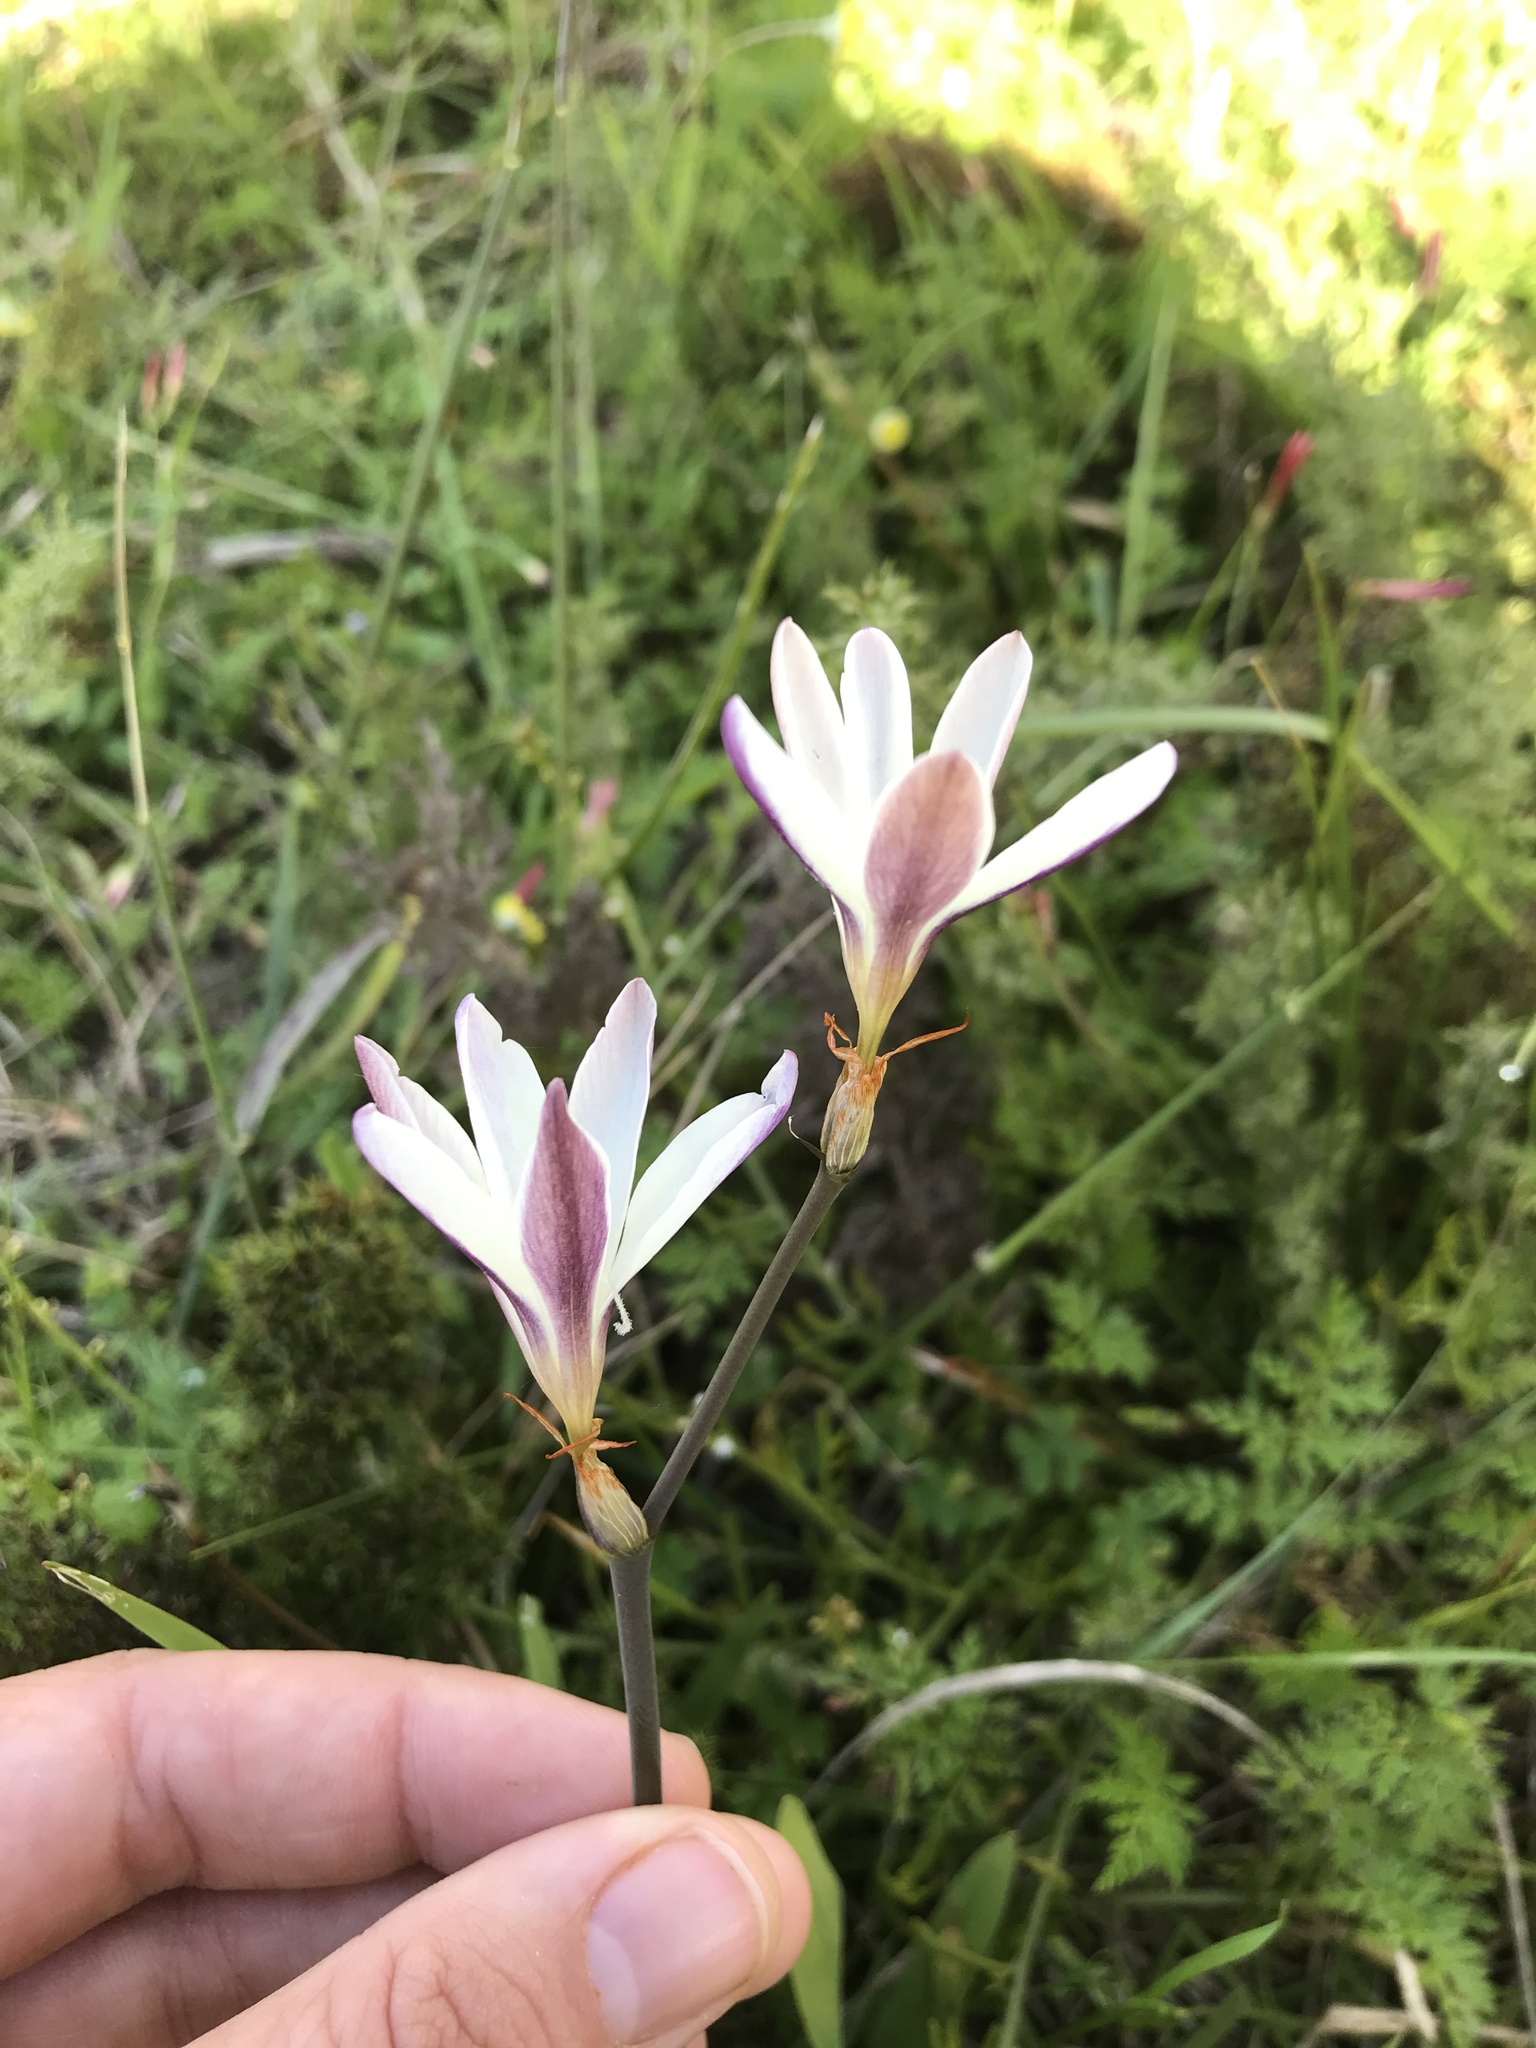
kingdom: Plantae
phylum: Tracheophyta
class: Liliopsida
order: Asparagales
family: Iridaceae
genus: Sparaxis
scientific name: Sparaxis bulbifera
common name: Harlequin-flower
